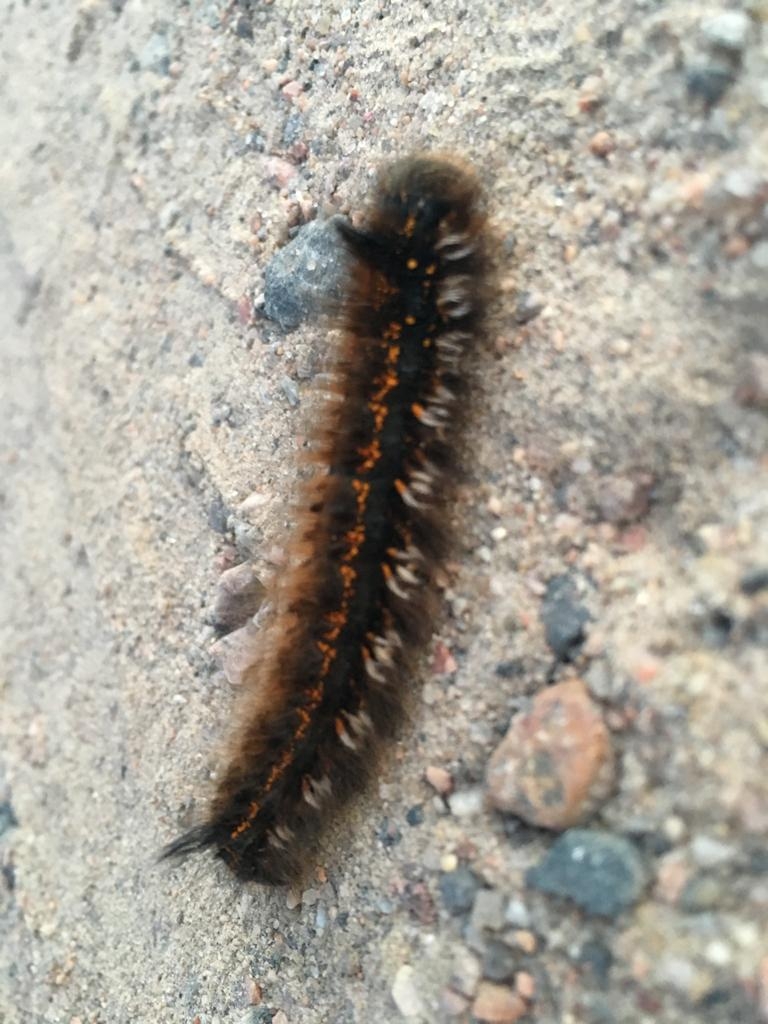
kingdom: Animalia
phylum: Arthropoda
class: Insecta
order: Lepidoptera
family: Lasiocampidae
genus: Euthrix
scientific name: Euthrix potatoria
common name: Drinker
